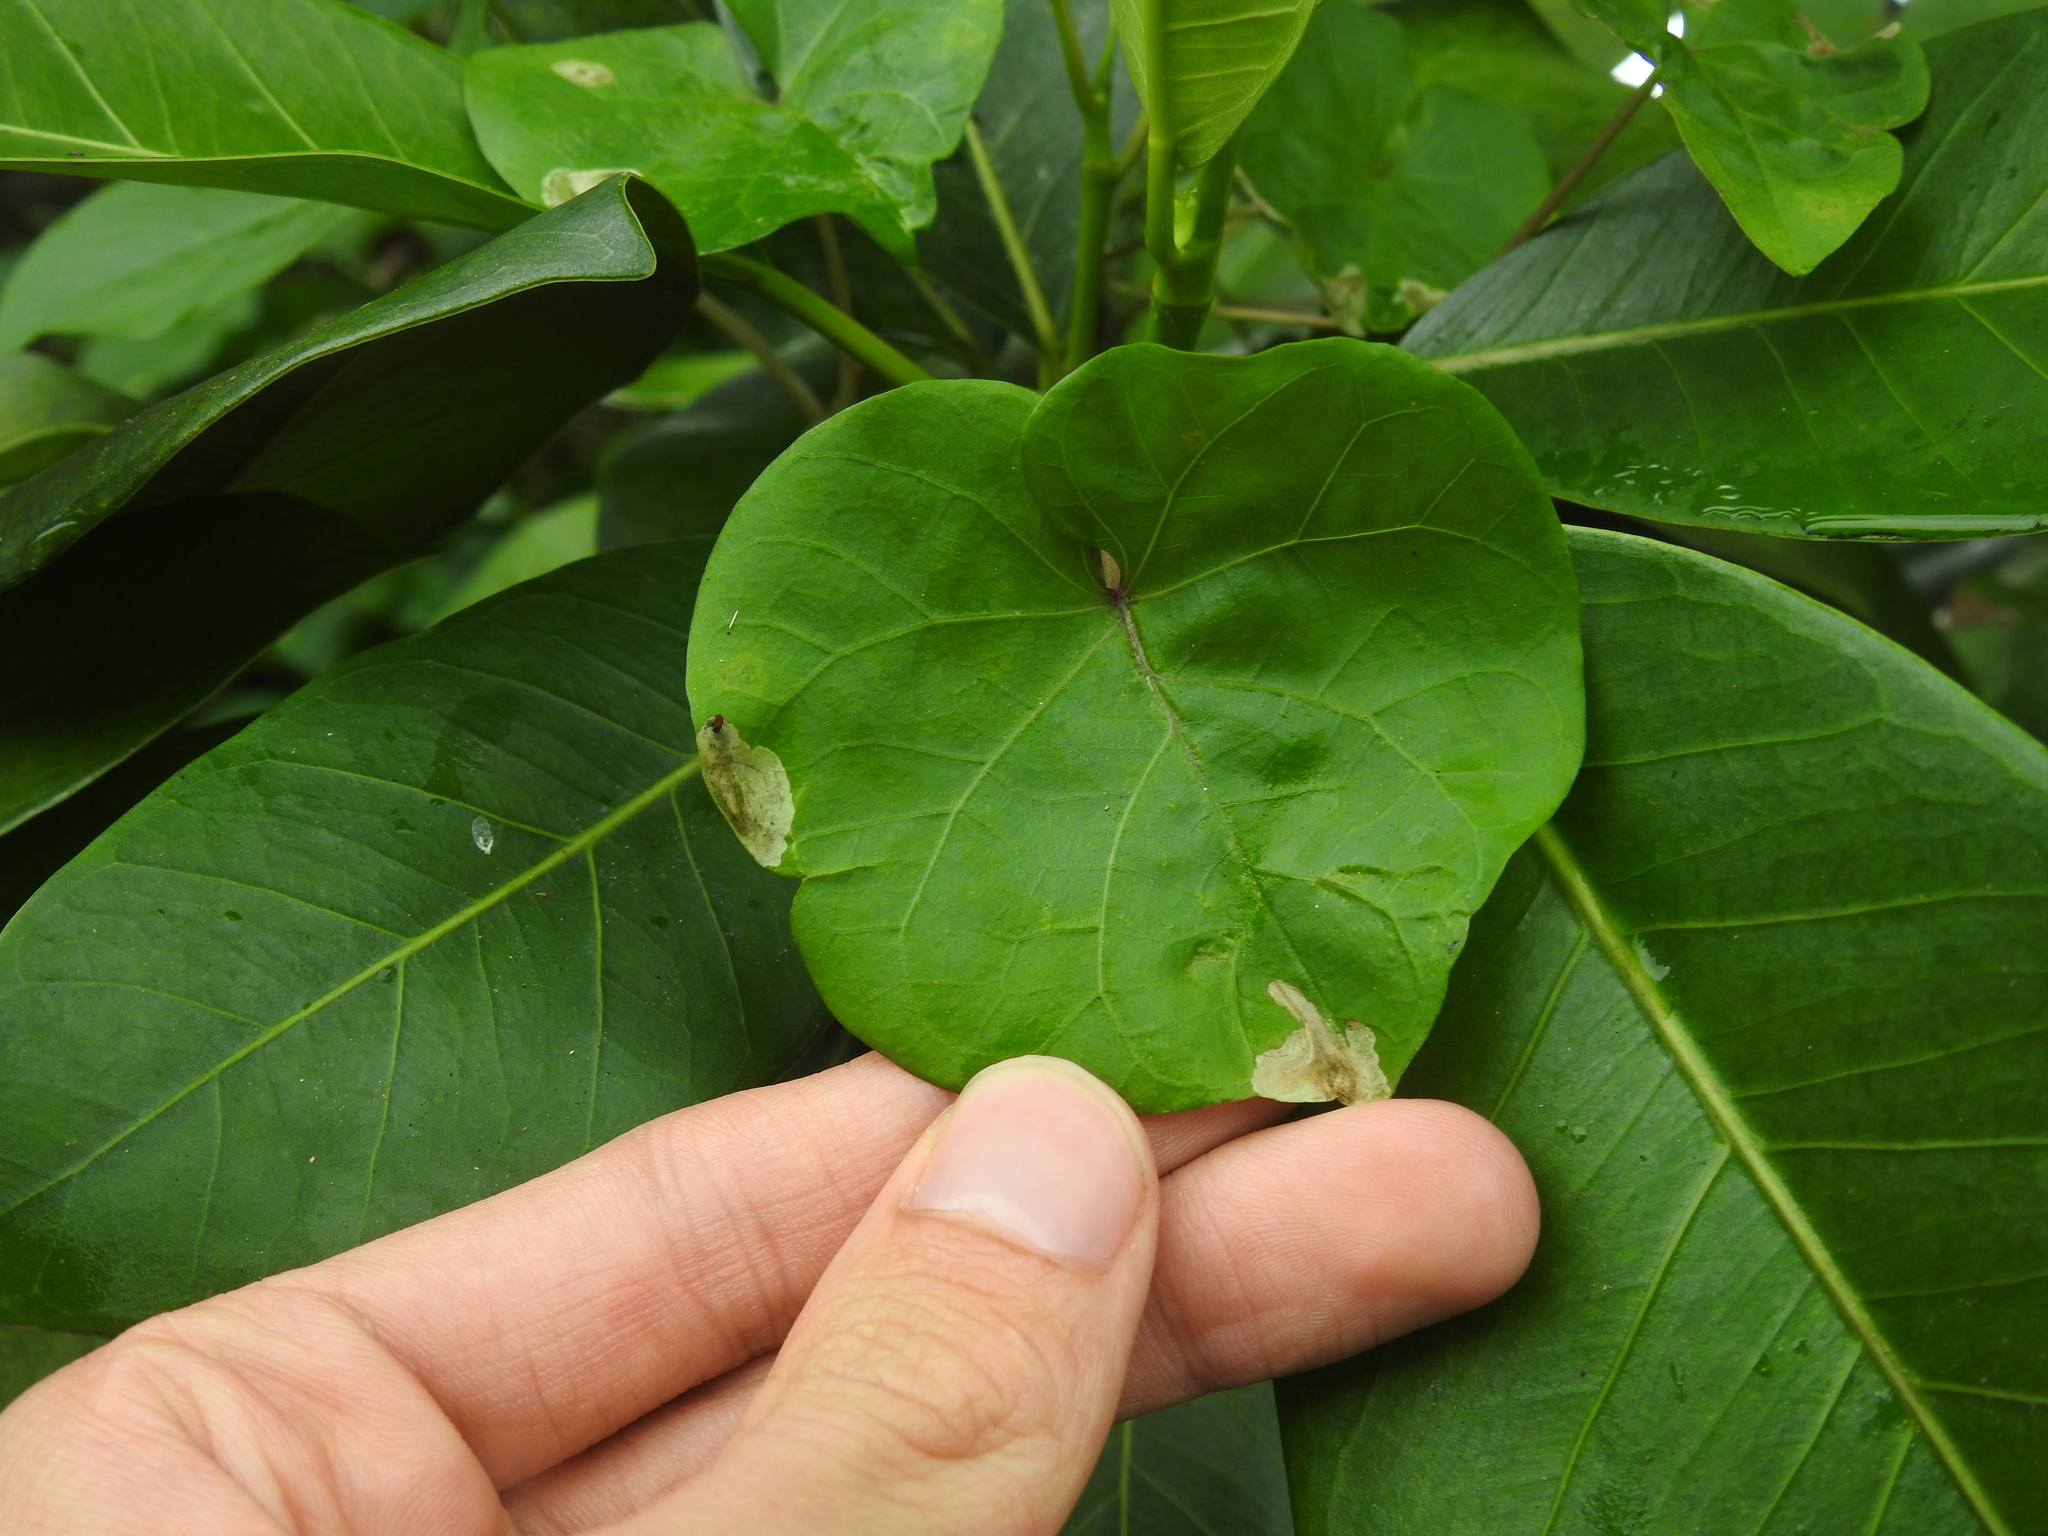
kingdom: Animalia
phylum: Arthropoda
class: Insecta
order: Diptera
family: Agromyzidae
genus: Calycomyza
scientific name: Calycomyza stegmaieri
